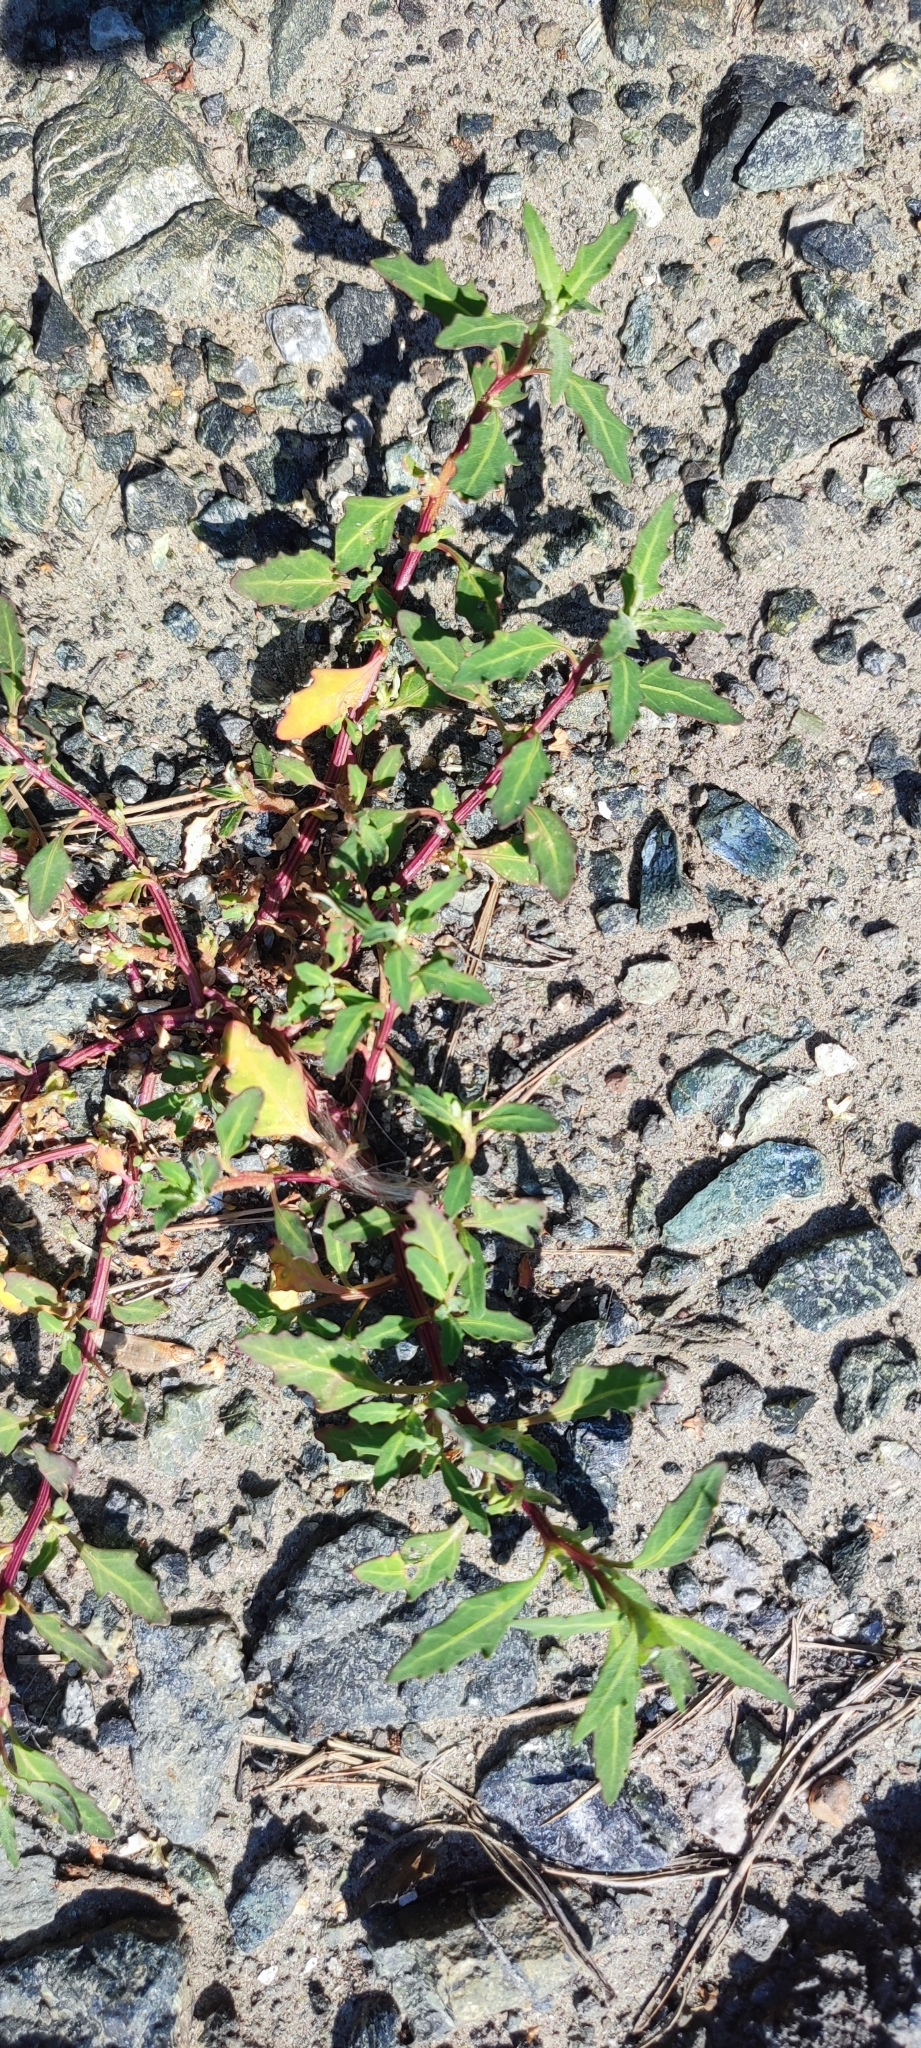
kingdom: Plantae
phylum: Tracheophyta
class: Magnoliopsida
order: Caryophyllales
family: Amaranthaceae
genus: Oxybasis
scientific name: Oxybasis glauca
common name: Glaucous goosefoot
